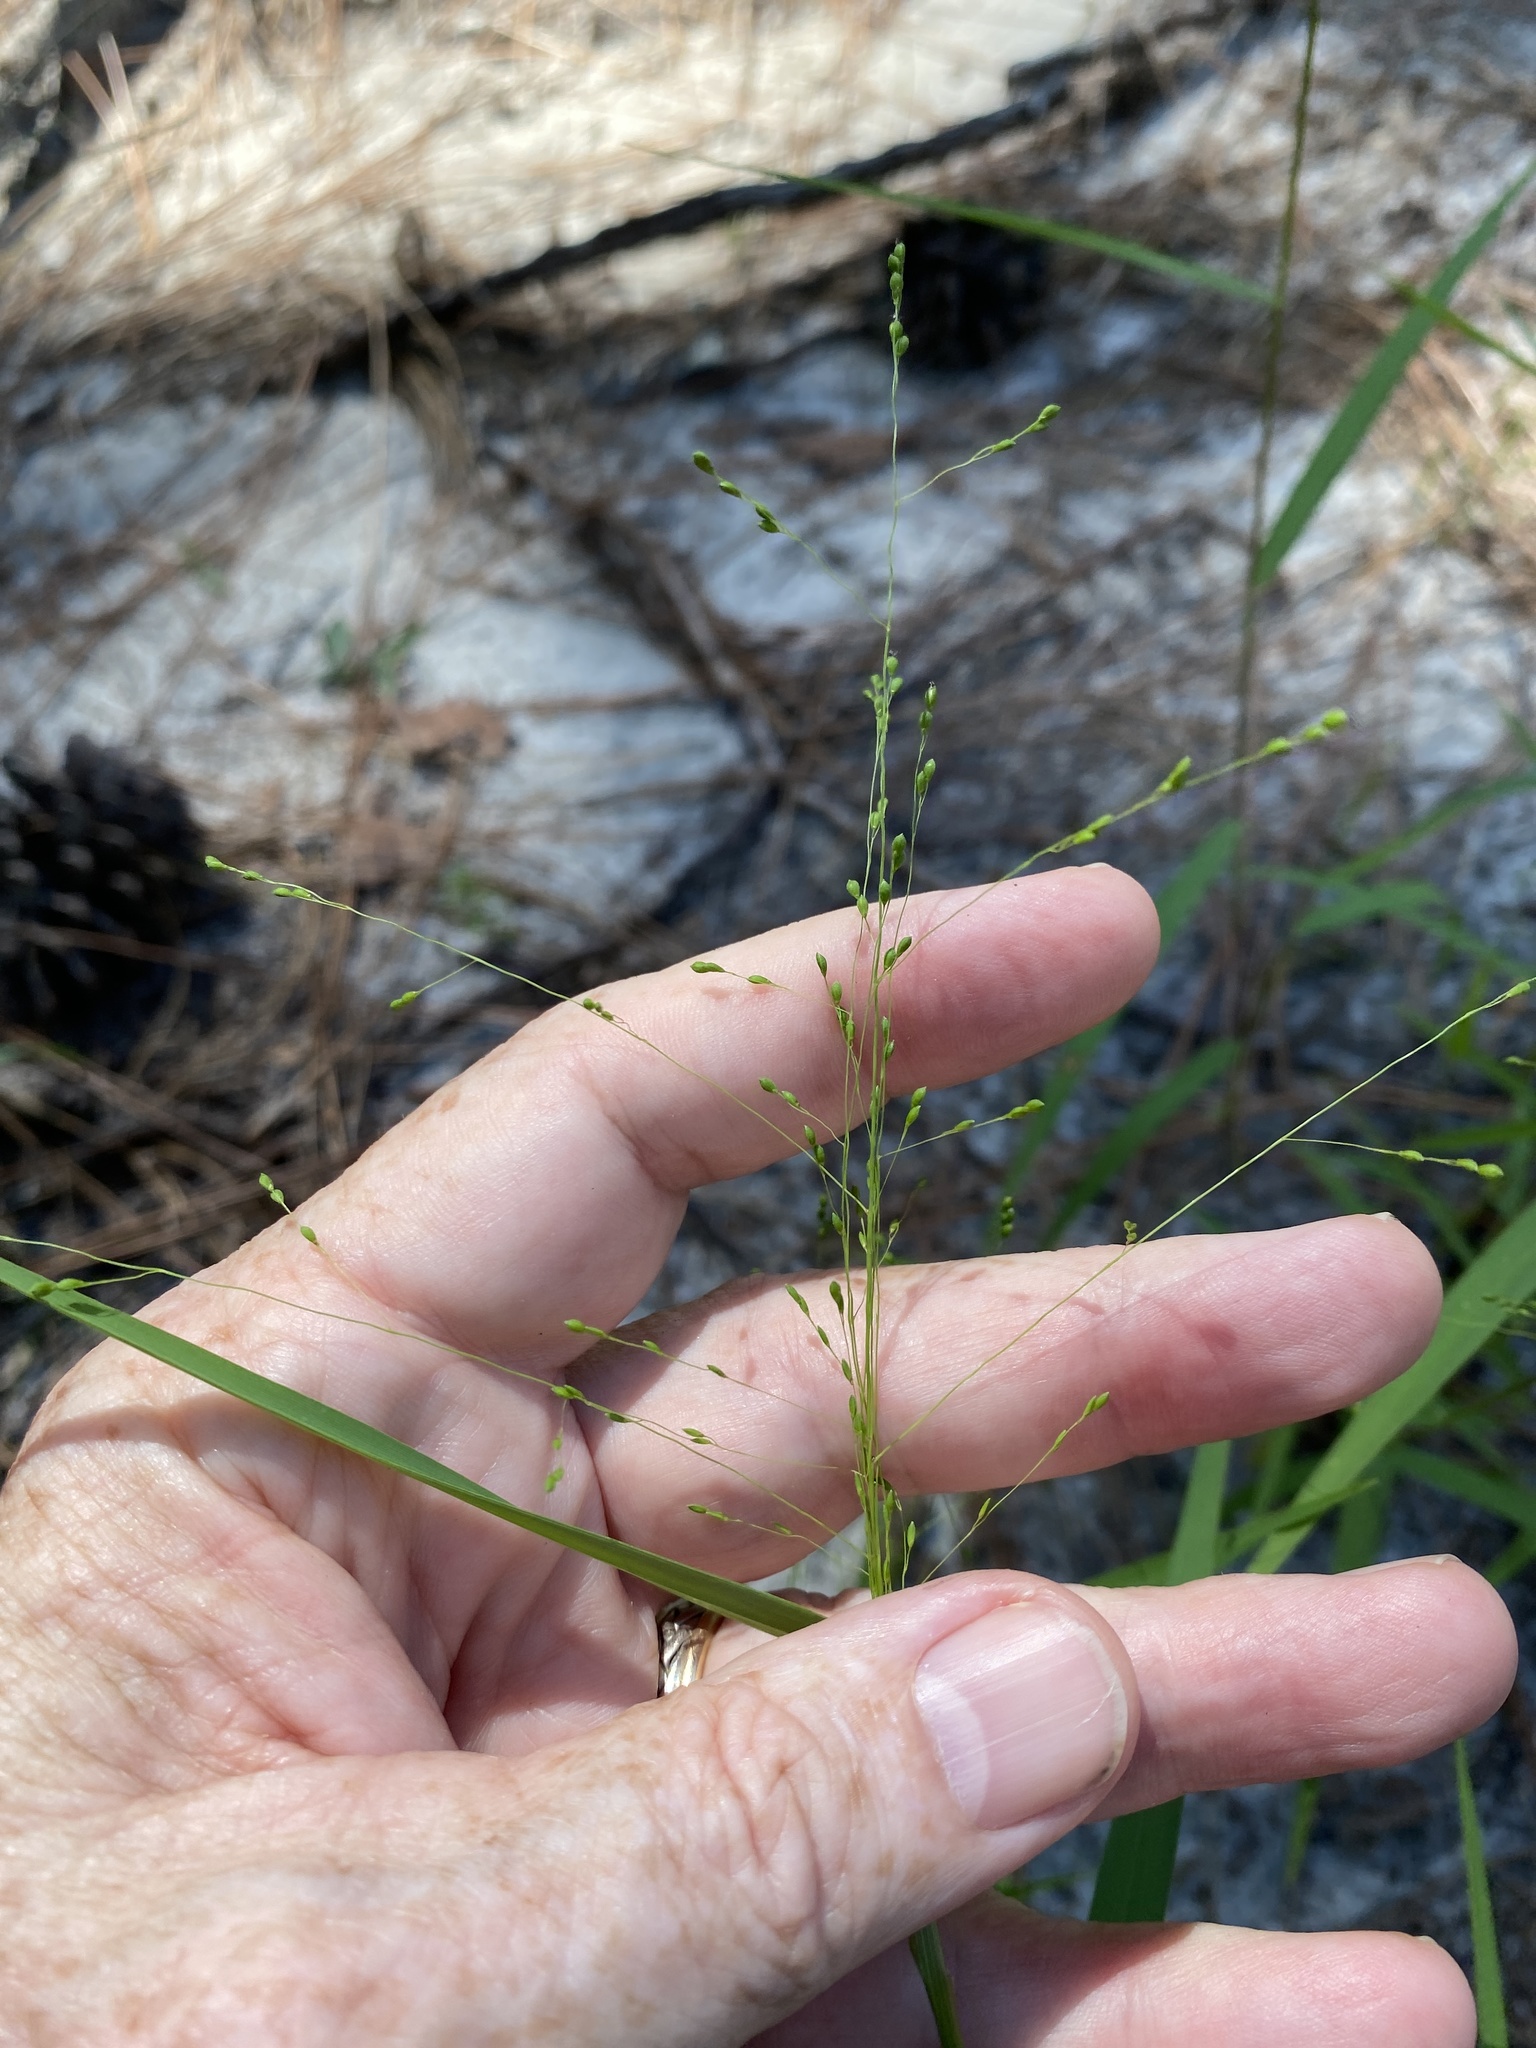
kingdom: Plantae
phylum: Tracheophyta
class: Liliopsida
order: Poales
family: Poaceae
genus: Kellochloa
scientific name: Kellochloa verrucosa
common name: Warty panic grass
